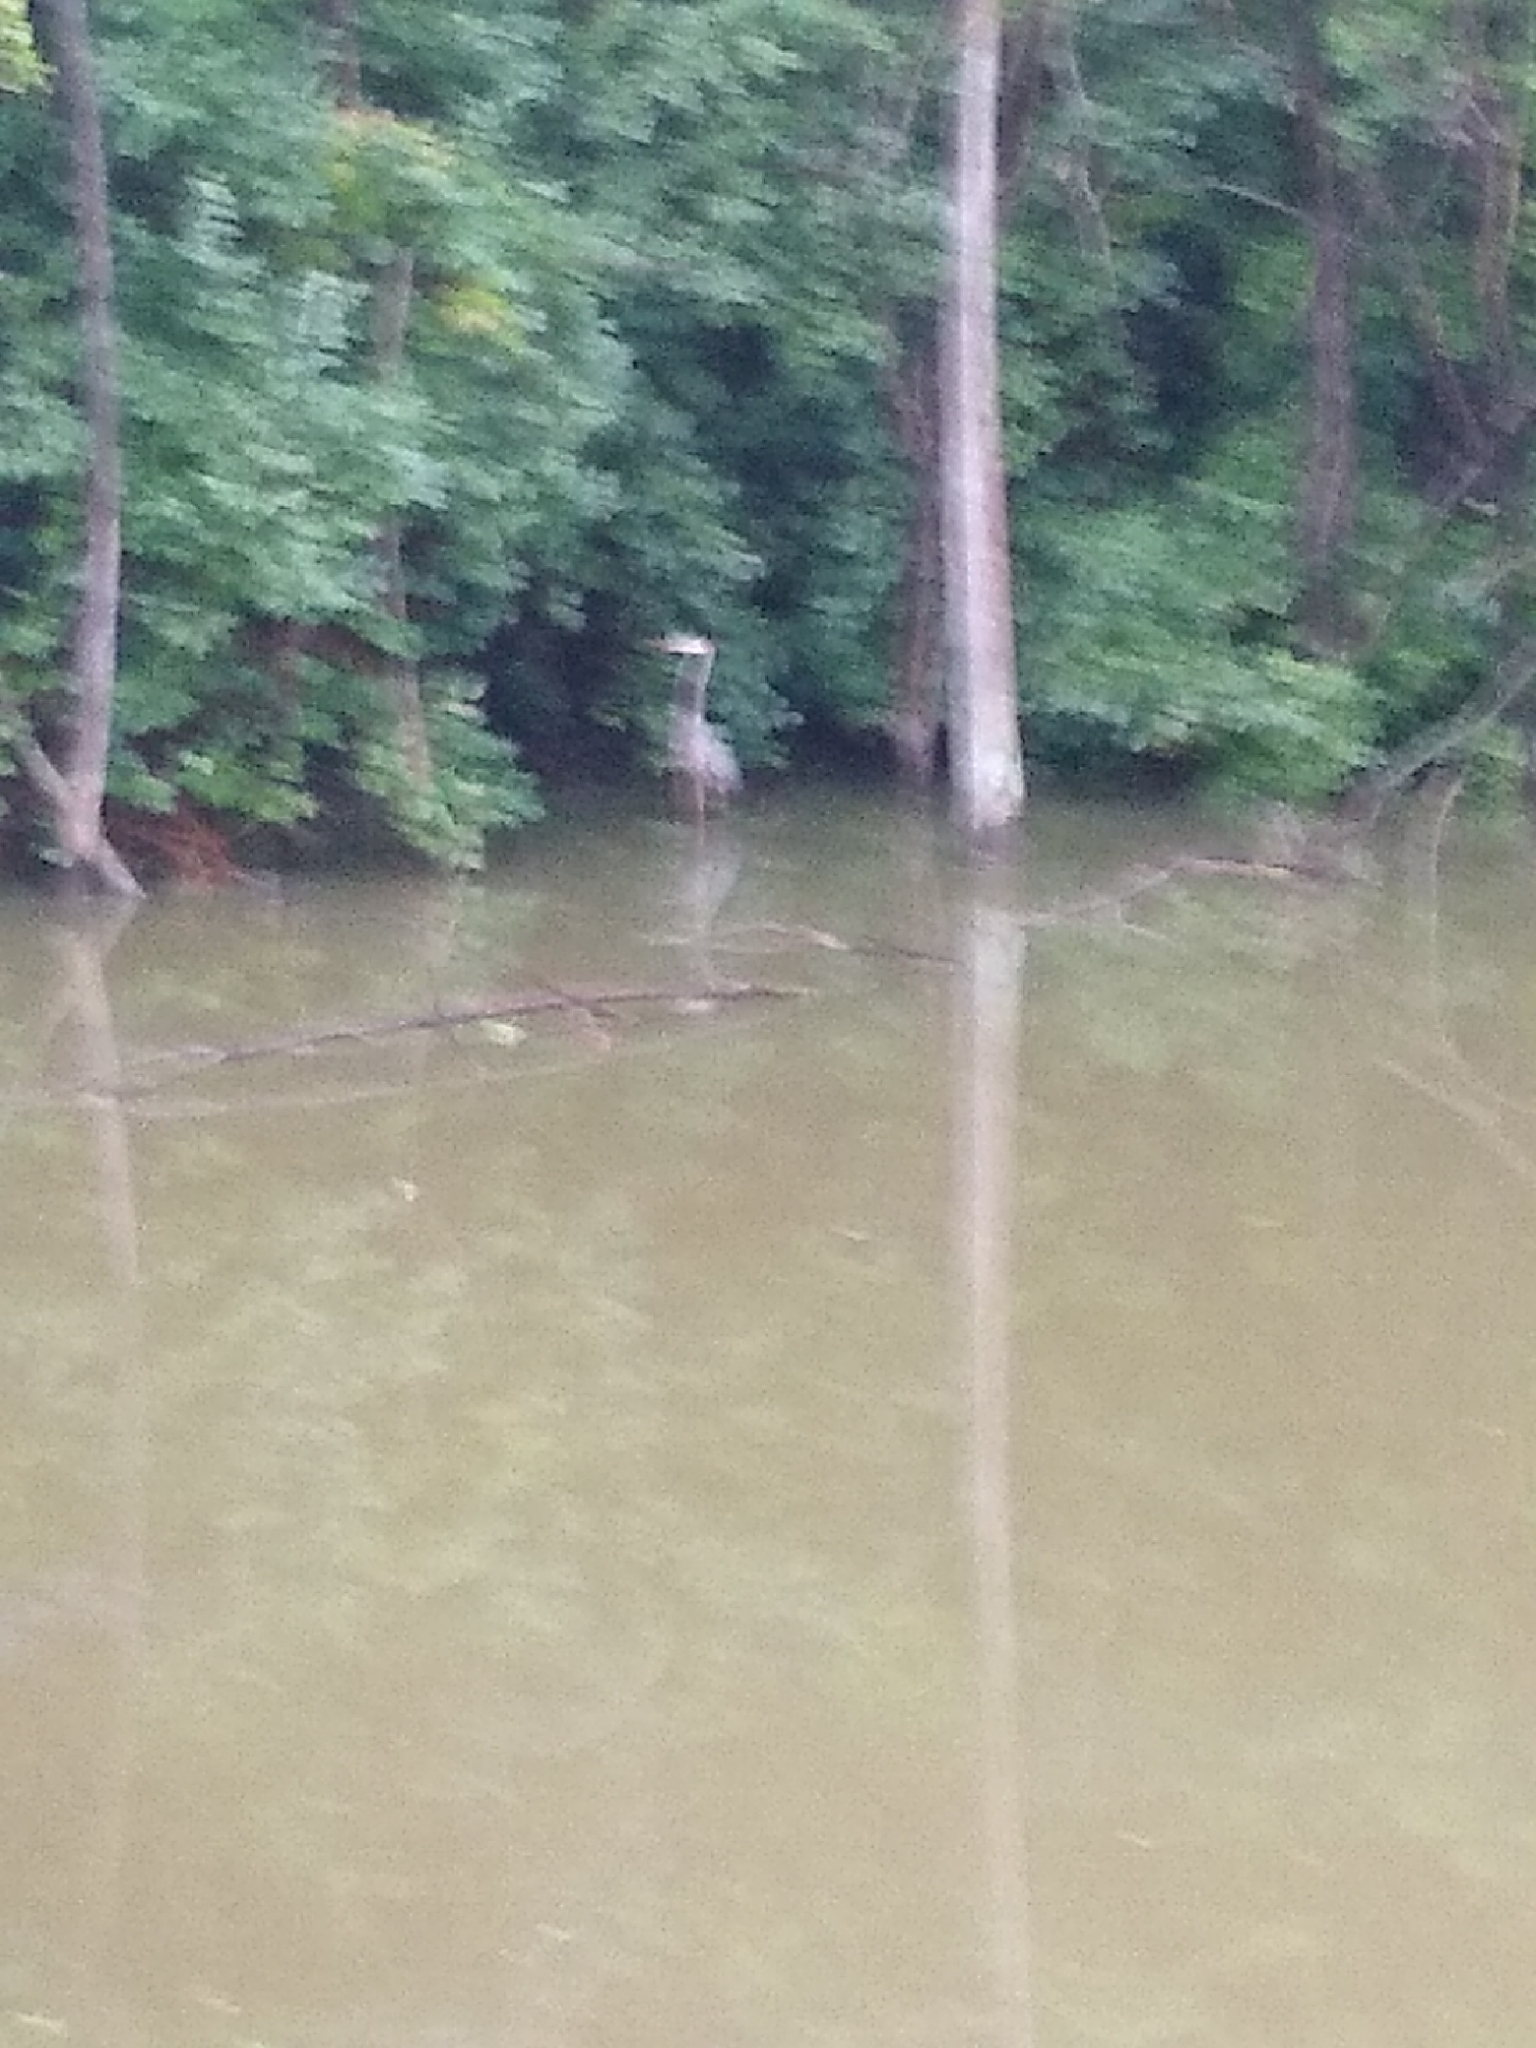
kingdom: Animalia
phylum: Chordata
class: Aves
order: Pelecaniformes
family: Ardeidae
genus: Ardea
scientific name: Ardea herodias
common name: Great blue heron
